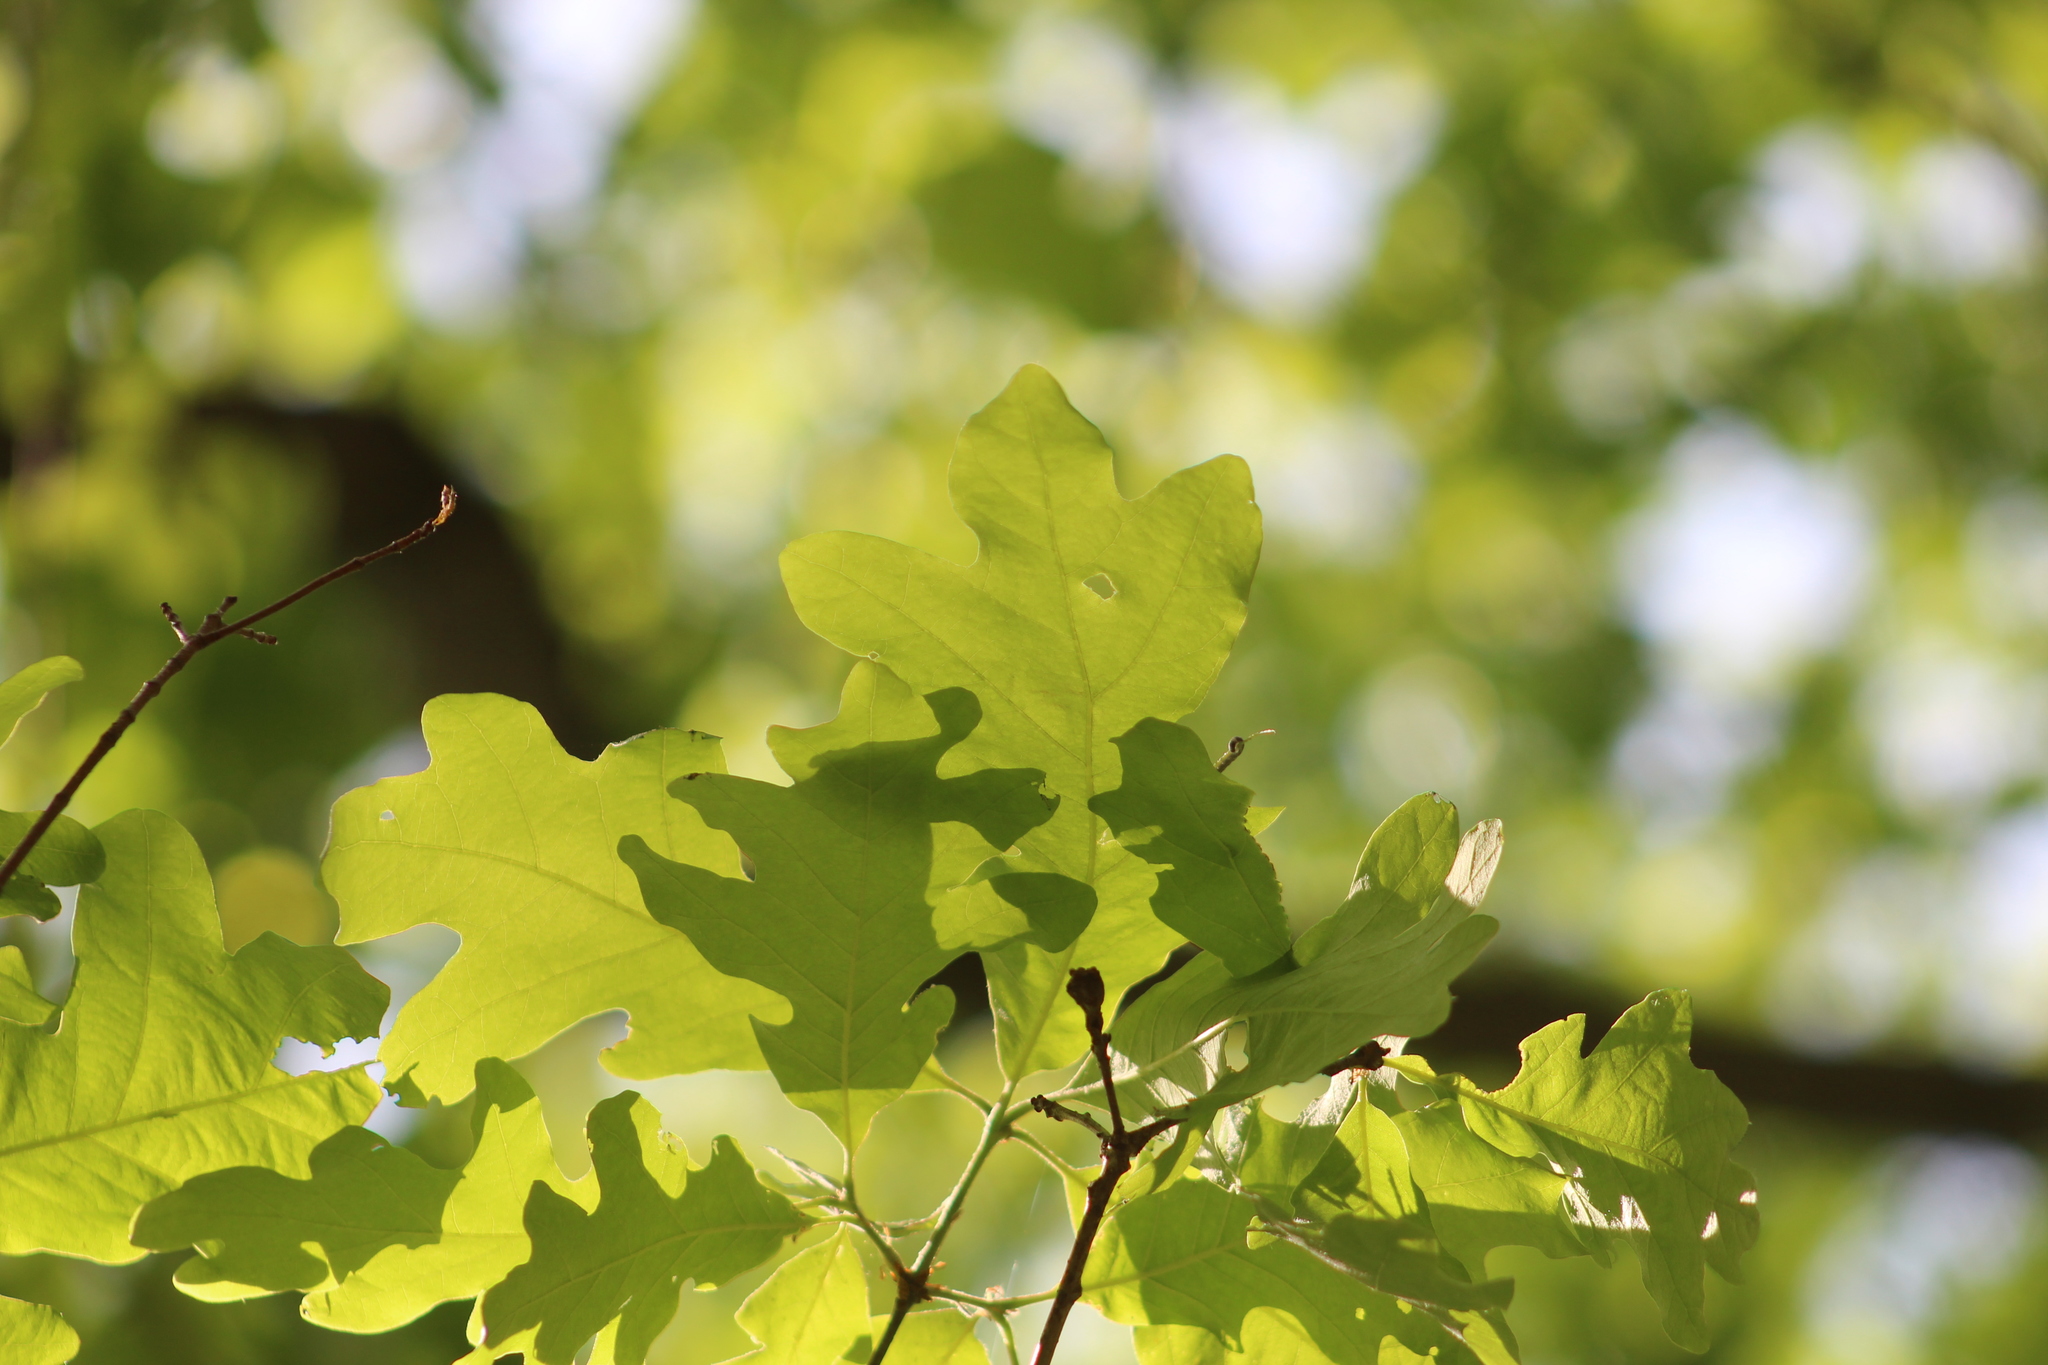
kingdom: Plantae
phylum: Tracheophyta
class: Magnoliopsida
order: Fagales
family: Fagaceae
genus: Quercus
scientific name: Quercus alba
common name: White oak
